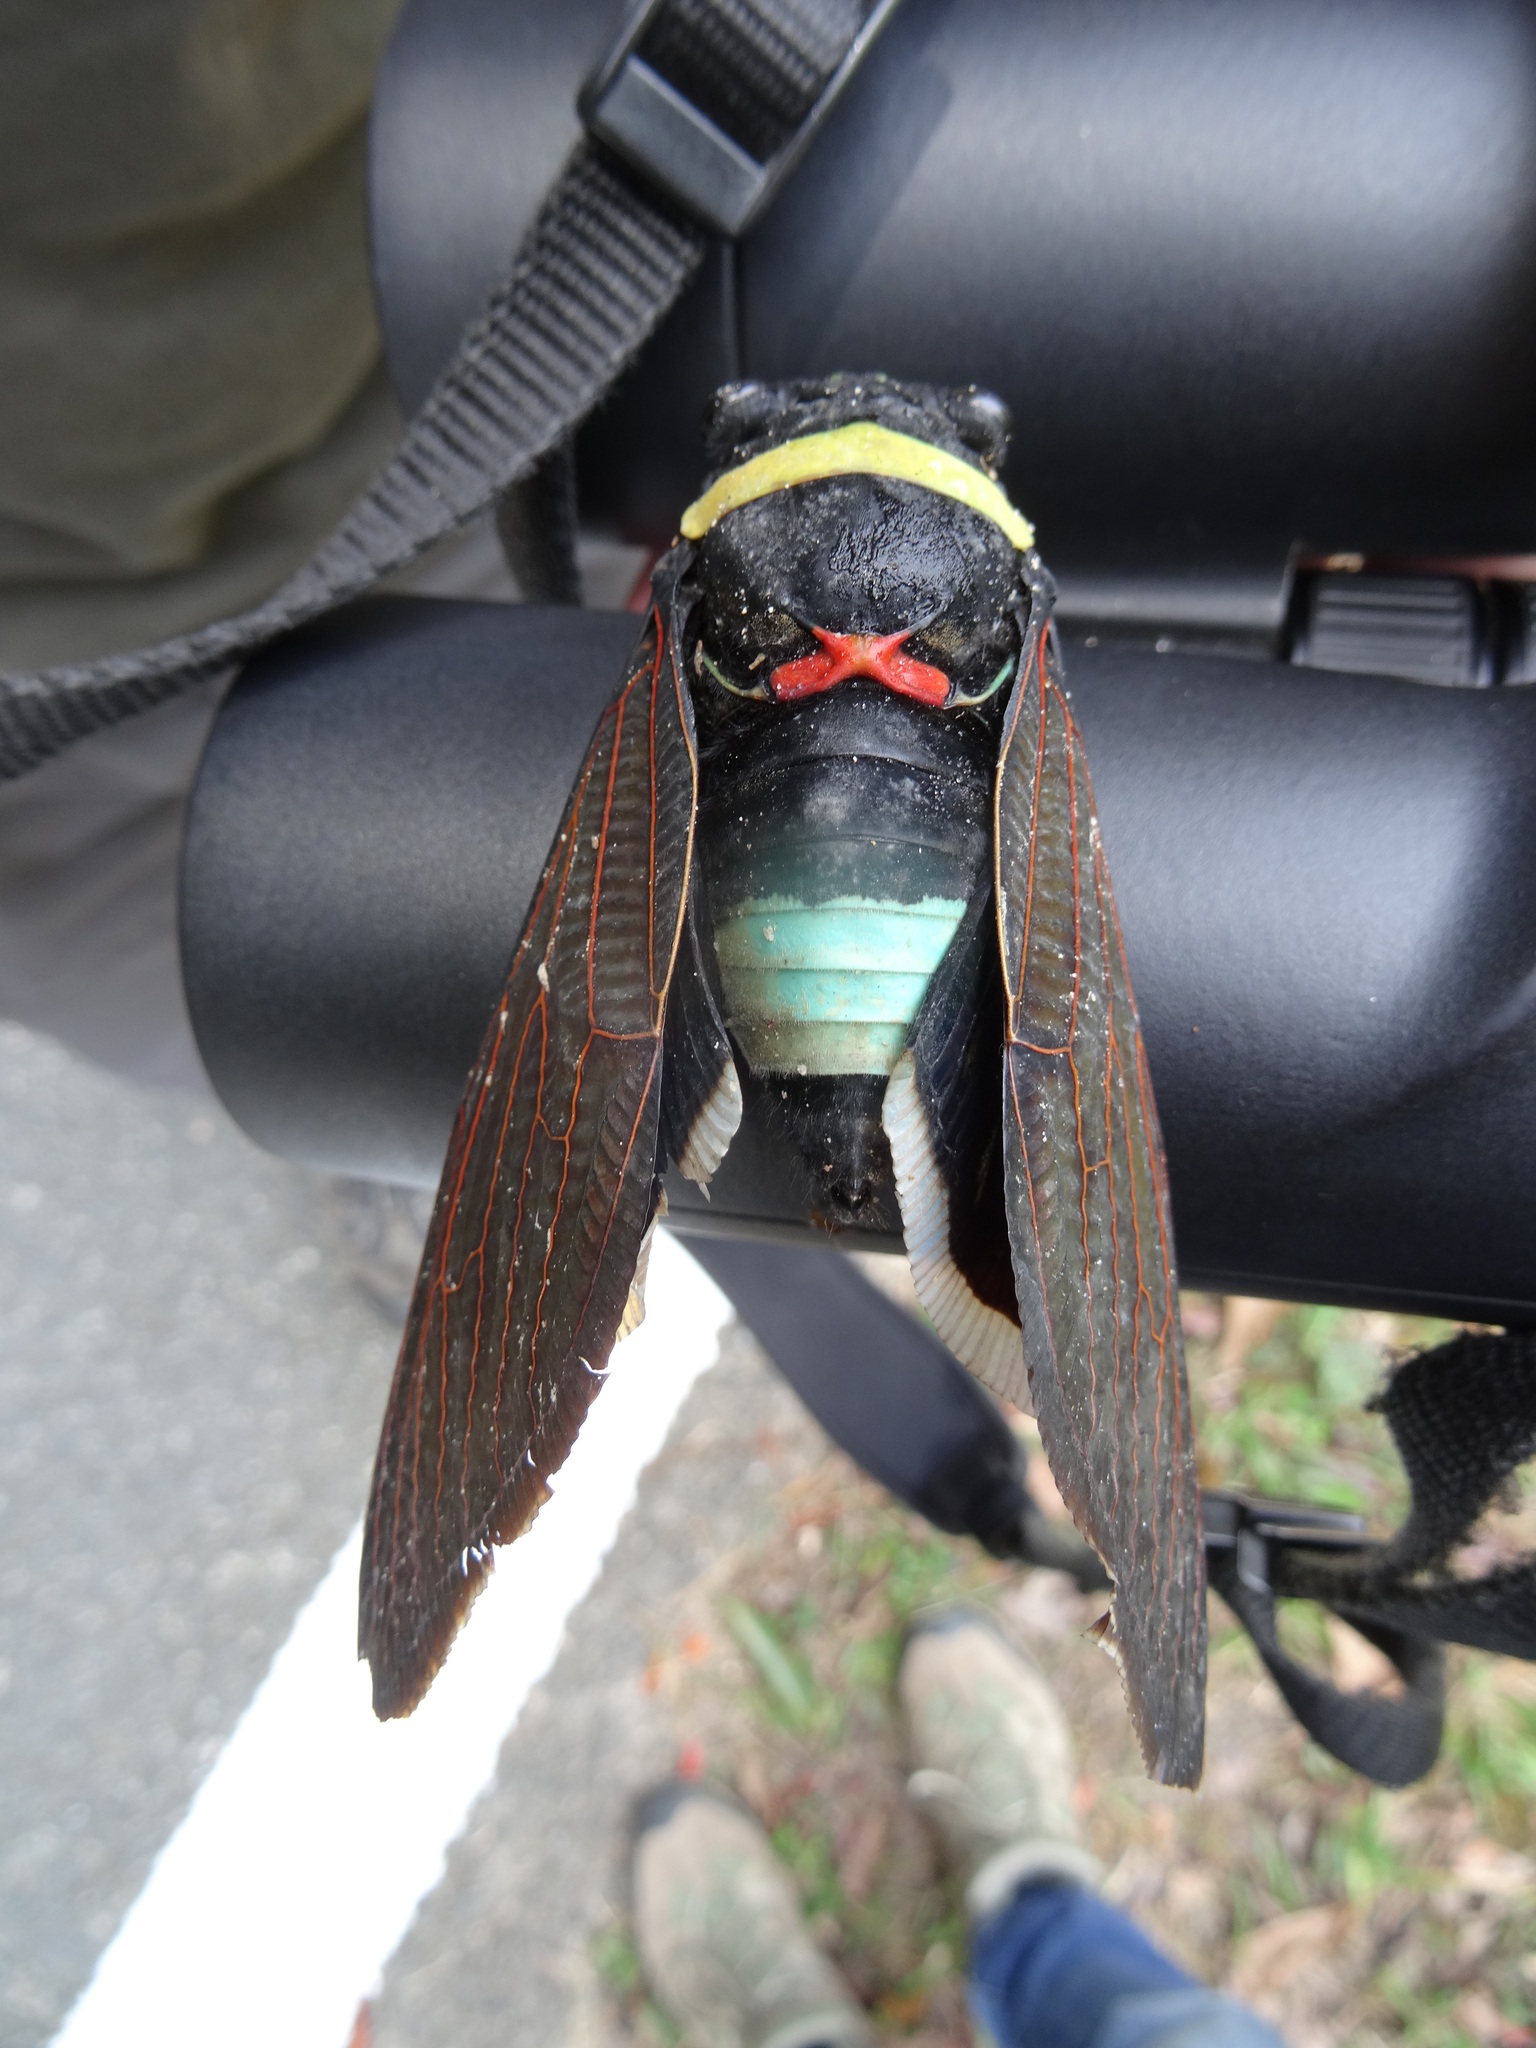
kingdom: Animalia
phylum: Arthropoda
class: Insecta
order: Hemiptera
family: Cicadidae
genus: Tacua
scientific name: Tacua speciosa
